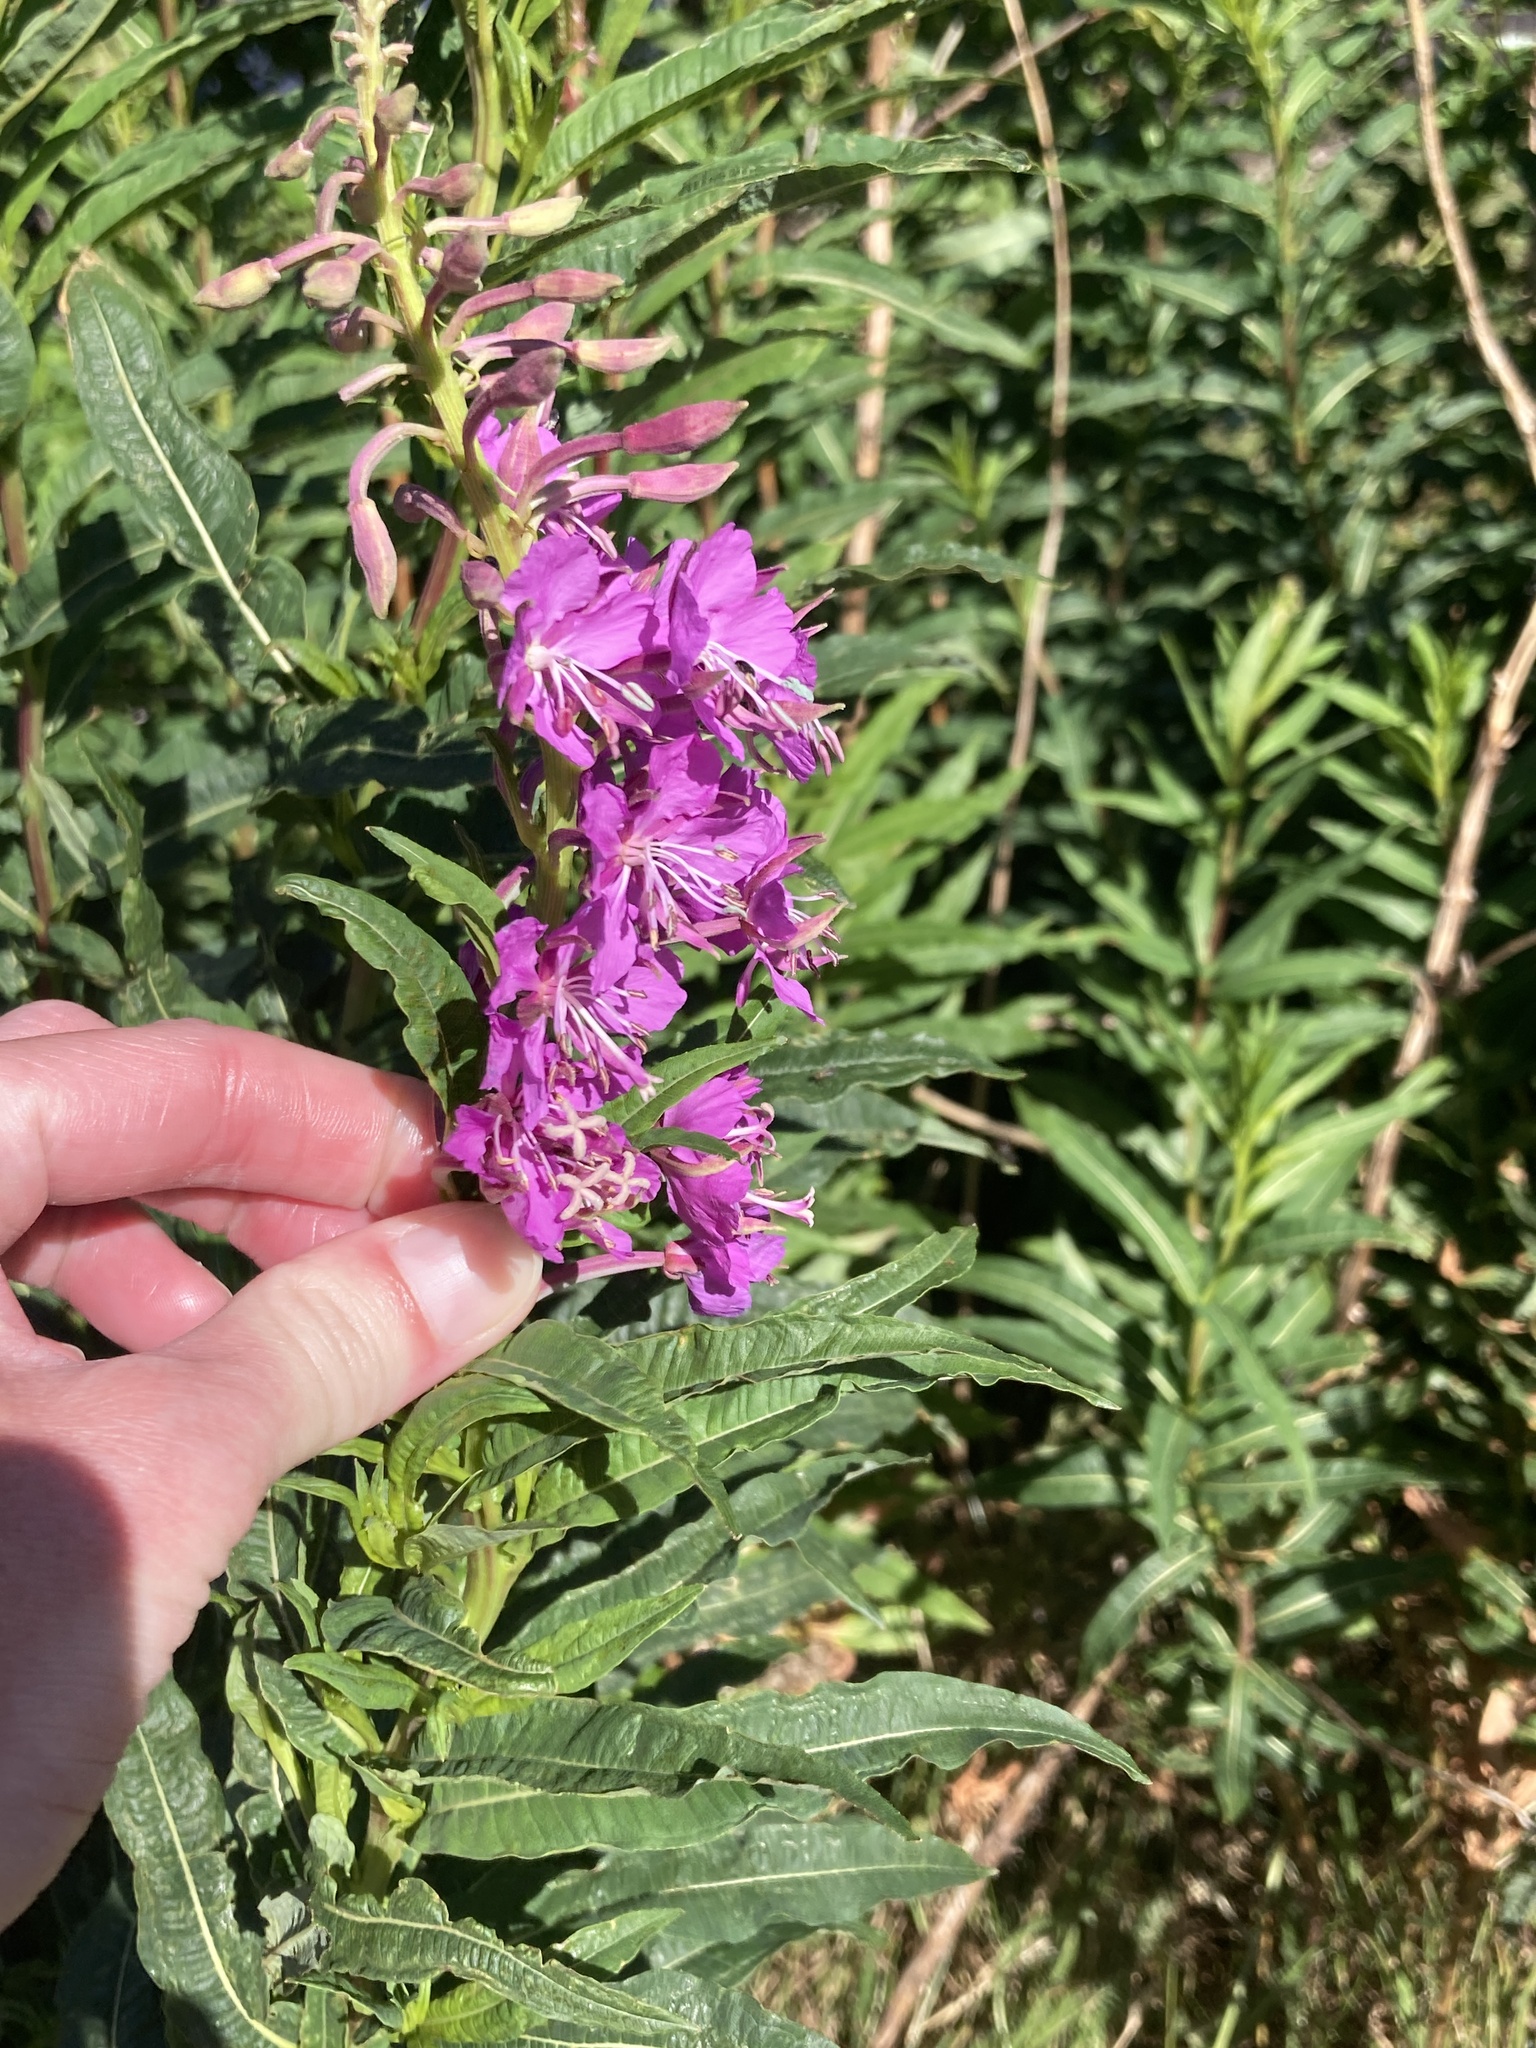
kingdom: Plantae
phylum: Tracheophyta
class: Magnoliopsida
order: Myrtales
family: Onagraceae
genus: Chamaenerion
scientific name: Chamaenerion angustifolium
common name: Fireweed
